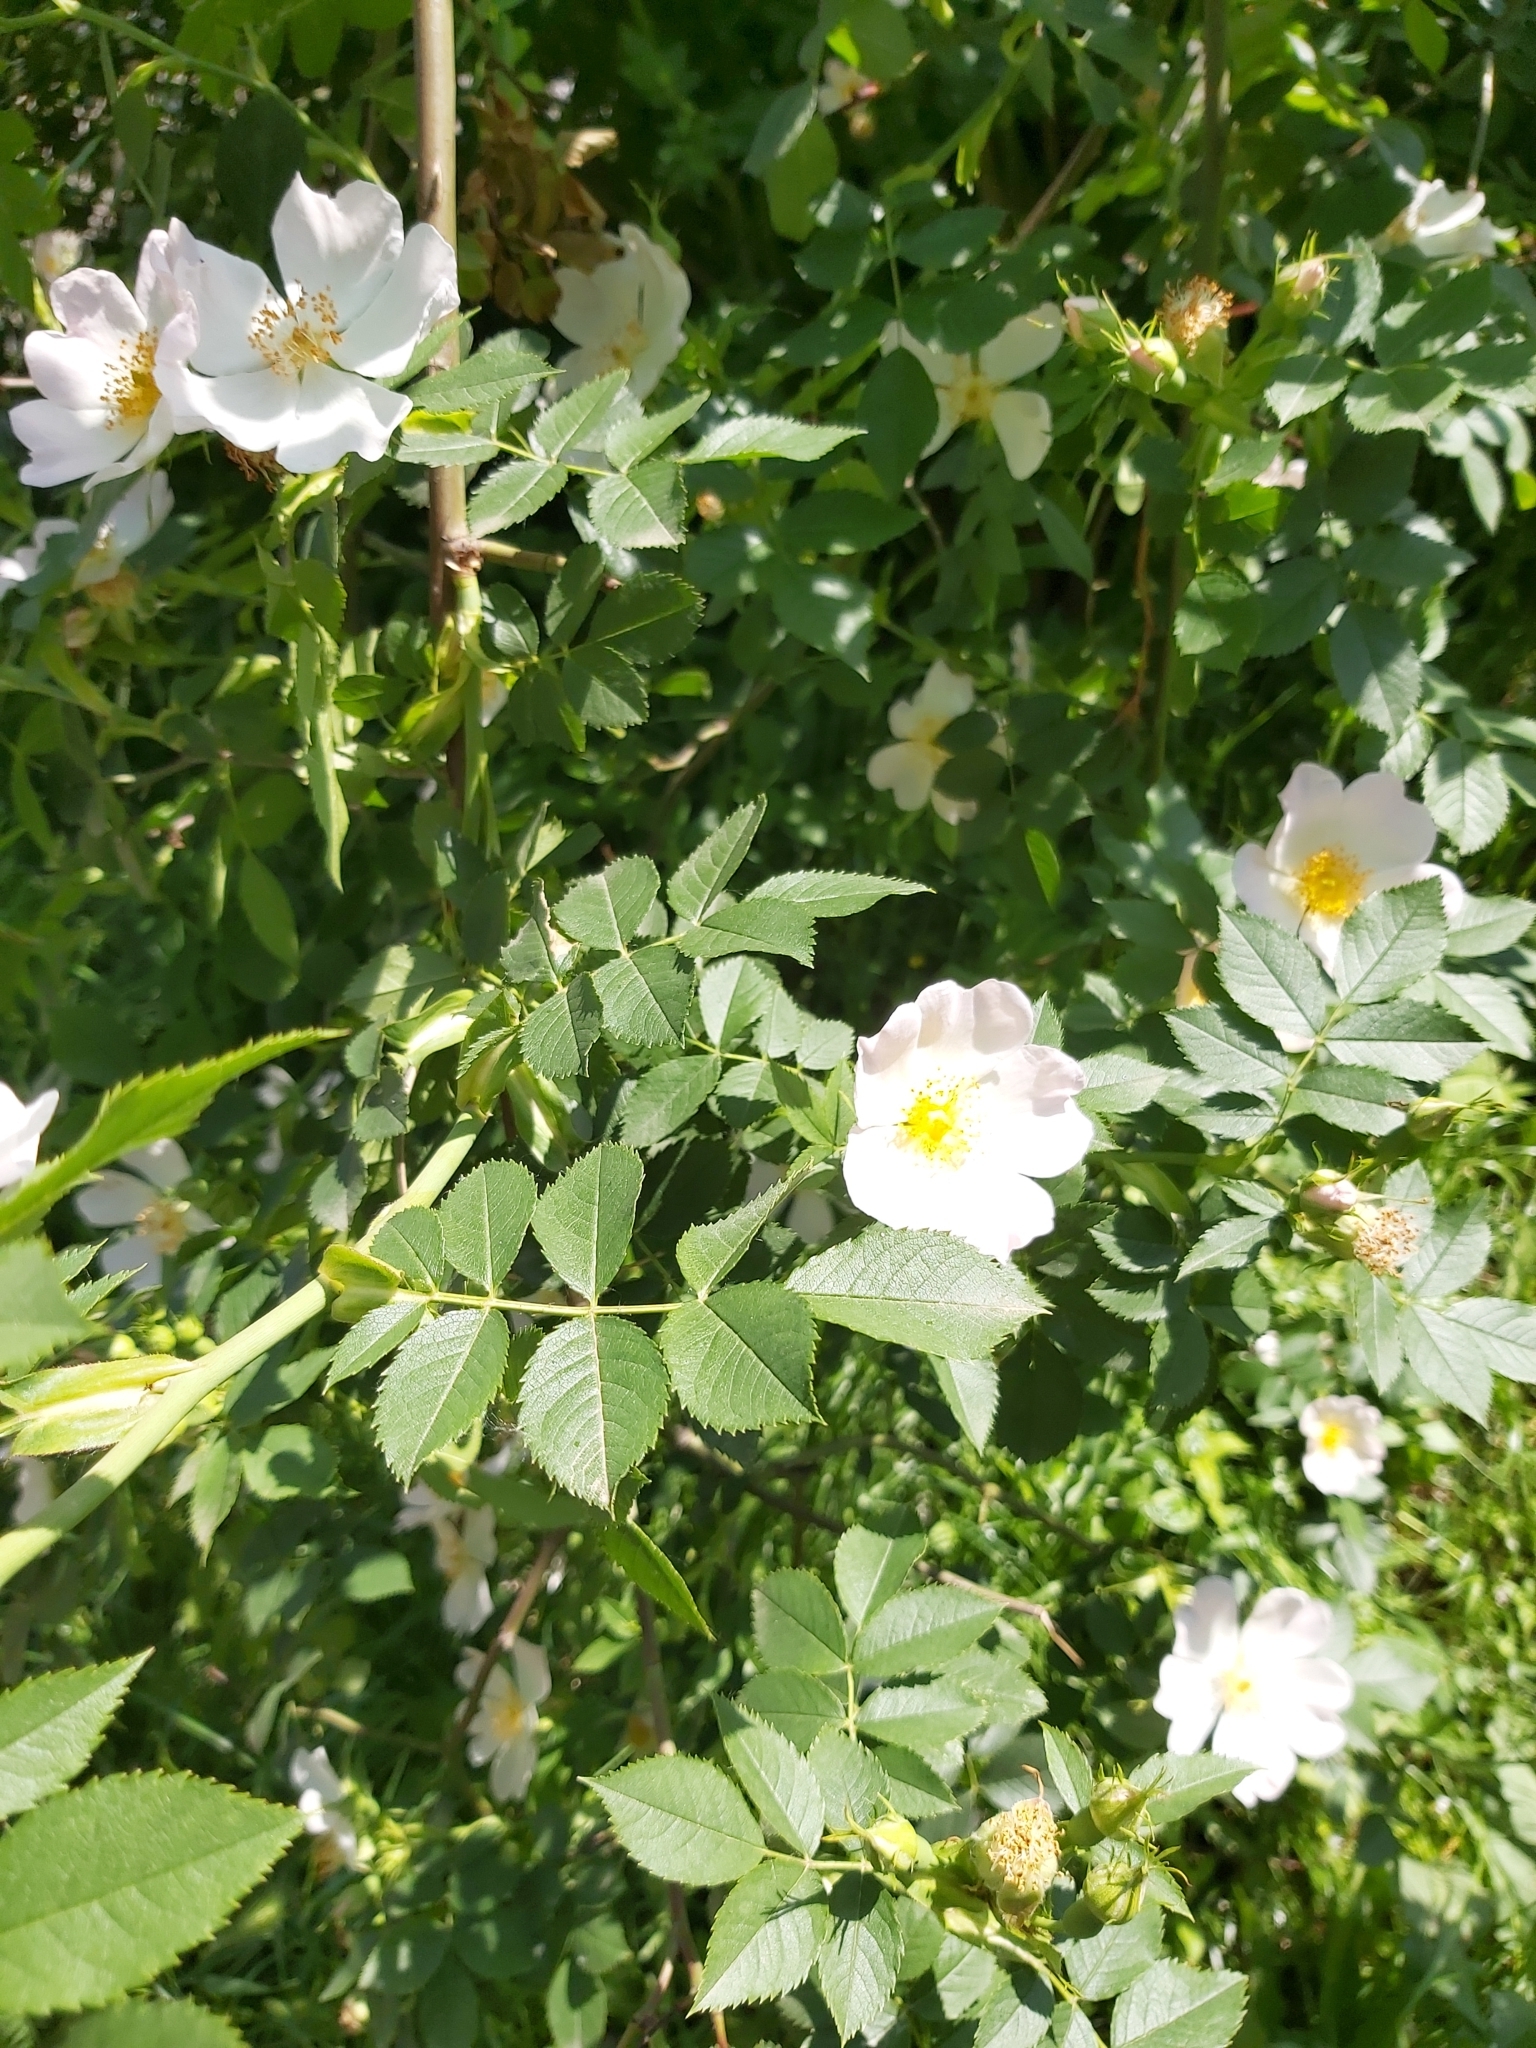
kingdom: Plantae
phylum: Tracheophyta
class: Magnoliopsida
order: Rosales
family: Rosaceae
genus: Rosa
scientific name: Rosa canina
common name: Dog rose
